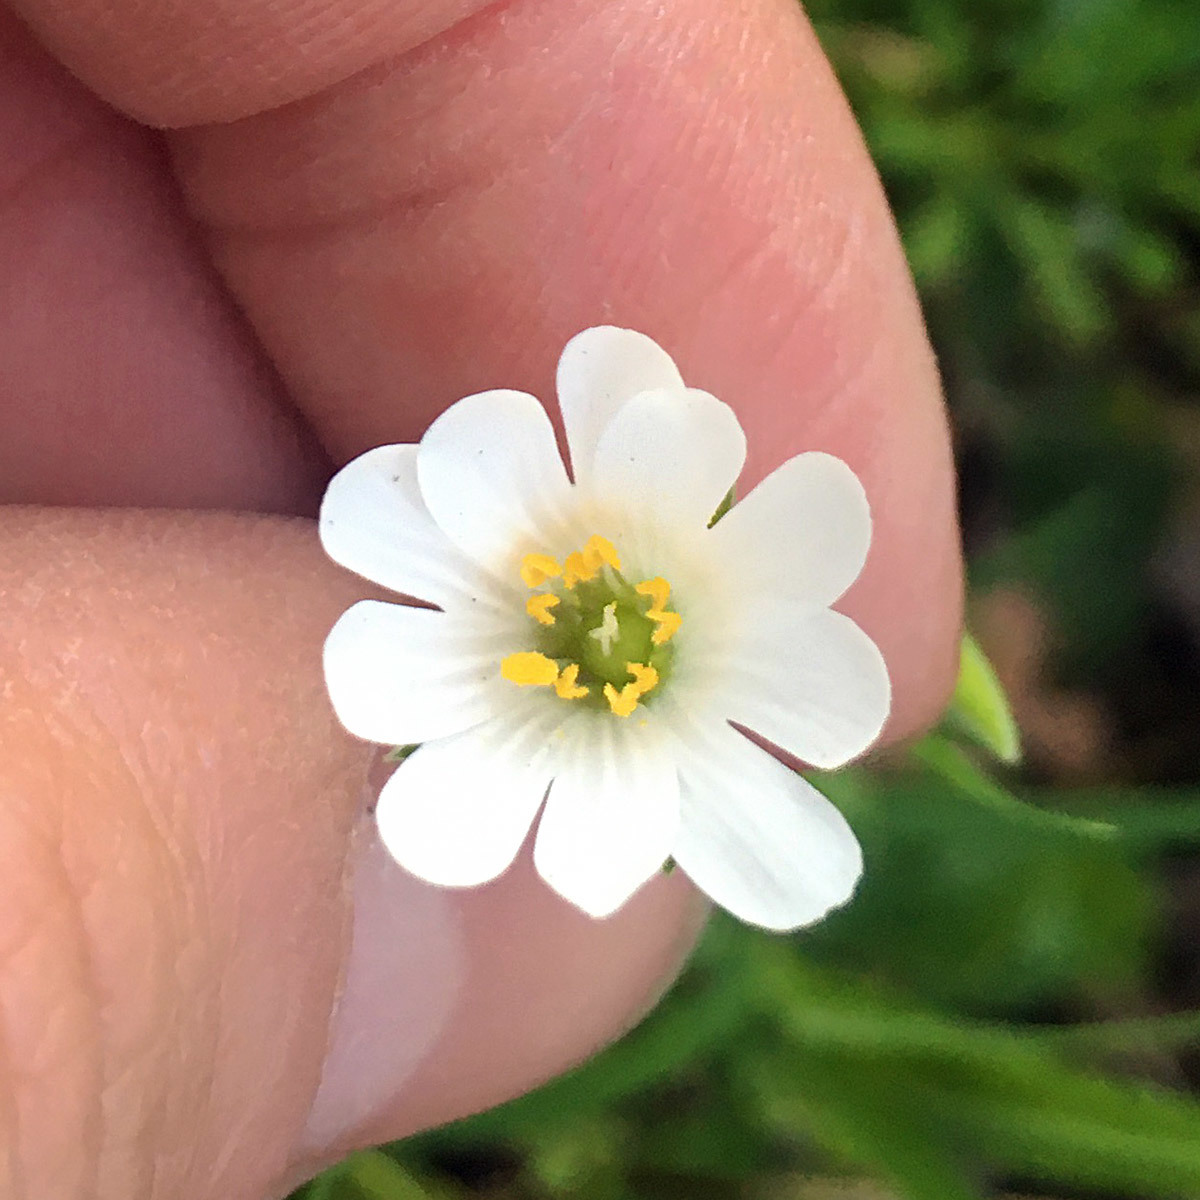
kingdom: Plantae
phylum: Tracheophyta
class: Magnoliopsida
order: Caryophyllales
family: Caryophyllaceae
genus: Rabelera
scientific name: Rabelera holostea
